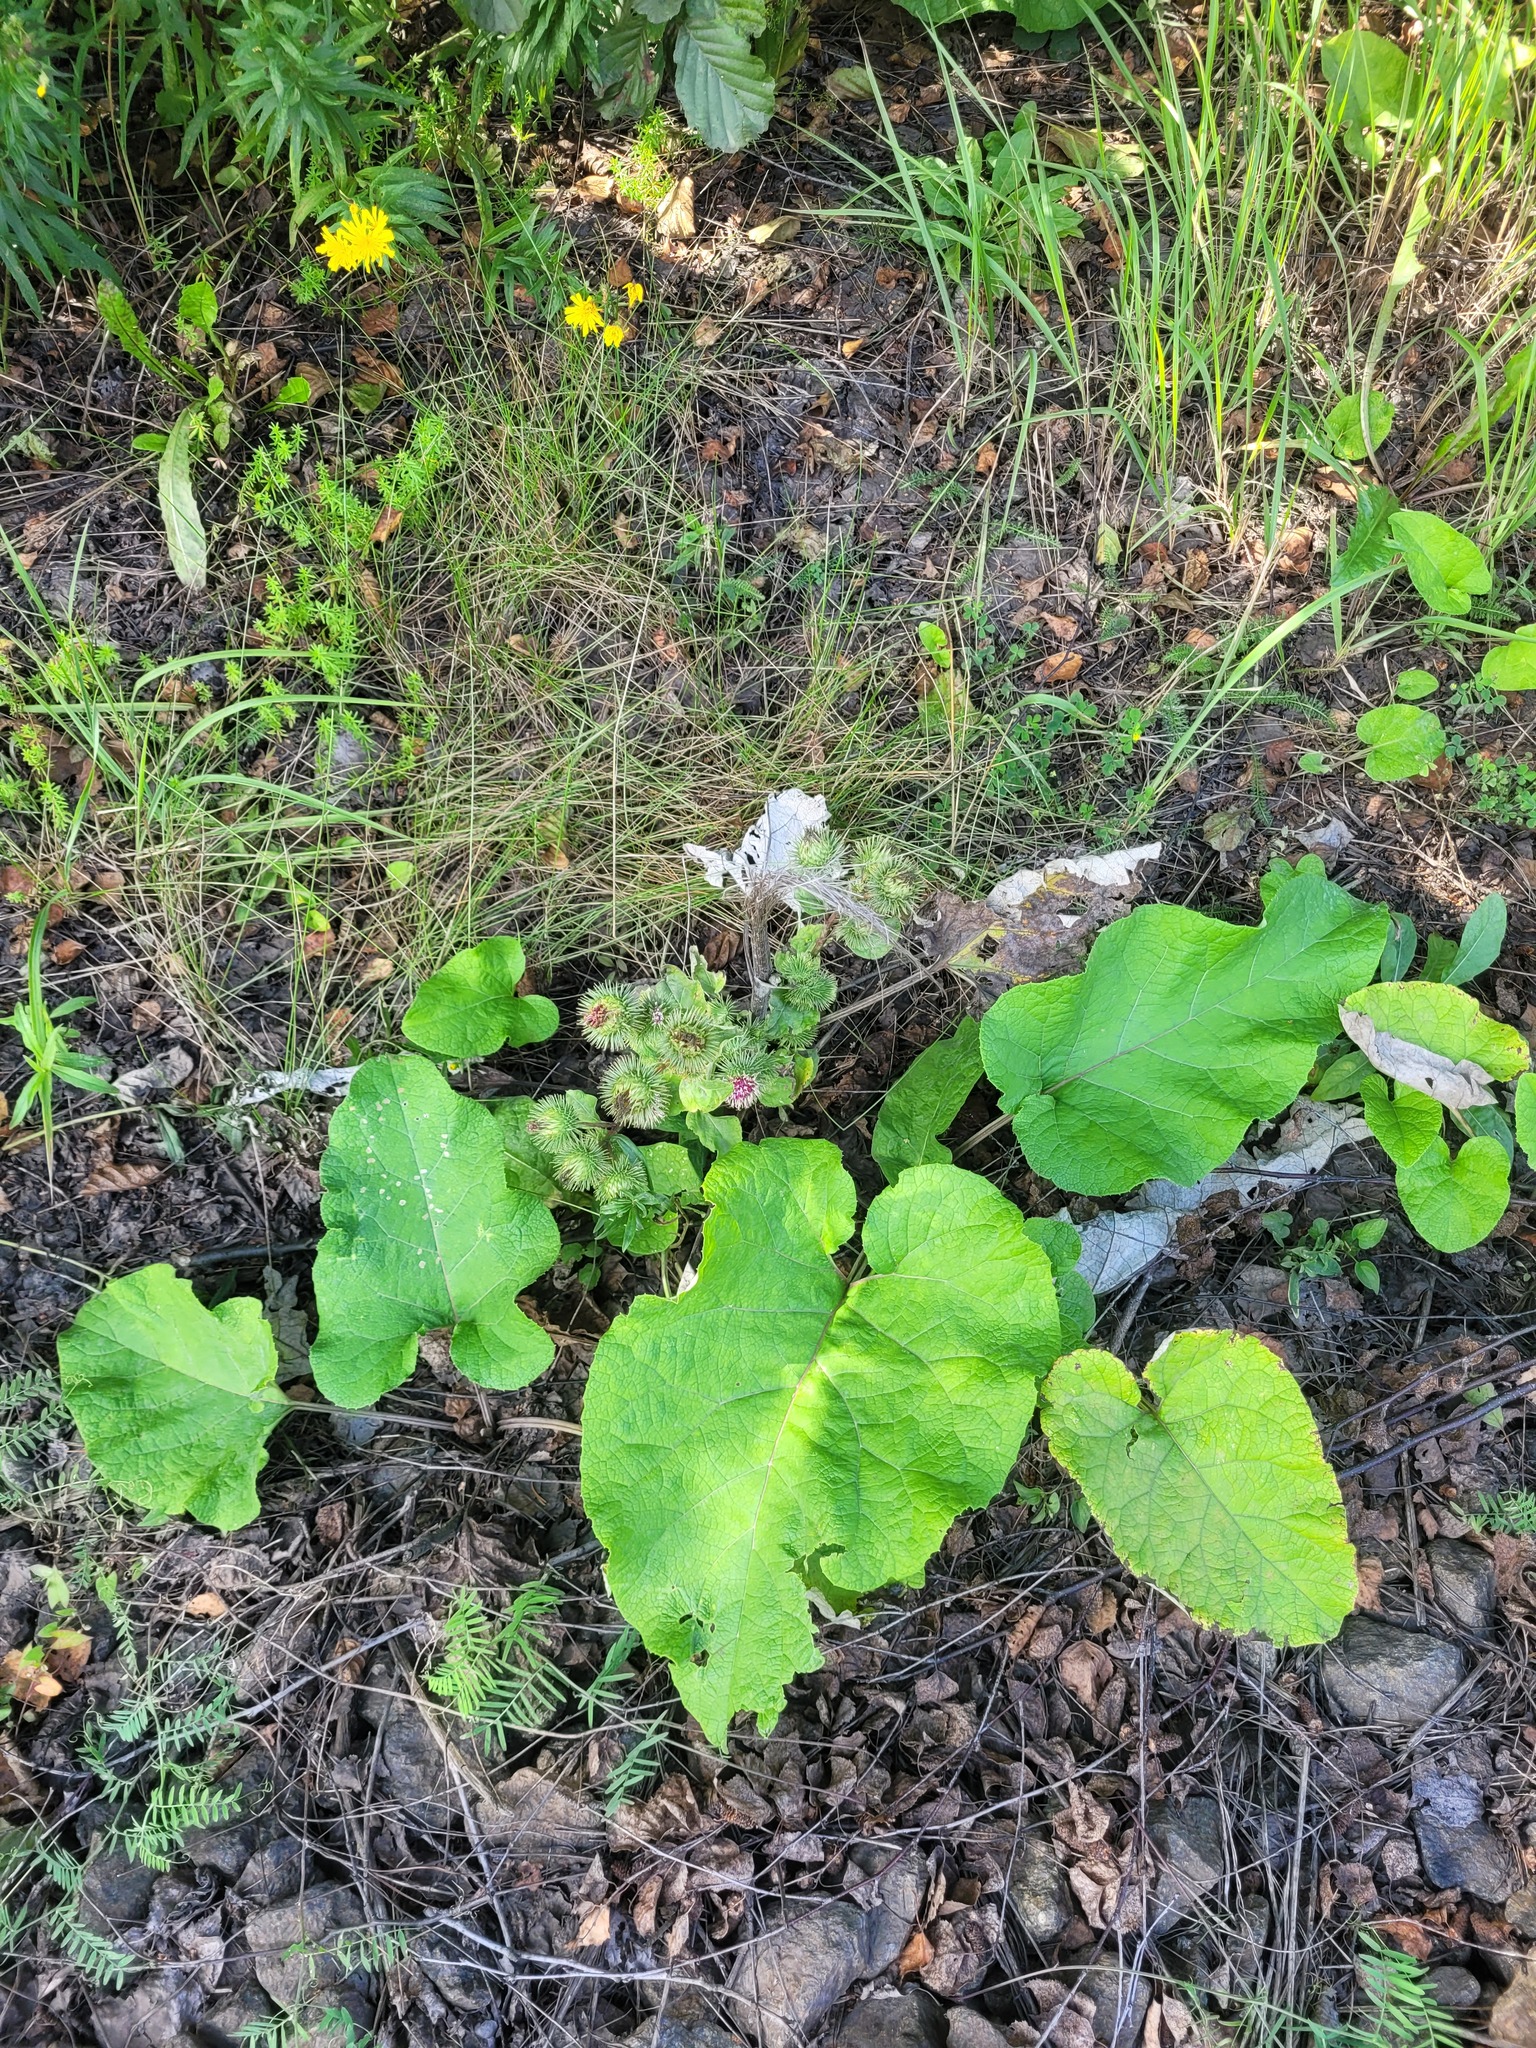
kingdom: Plantae
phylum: Tracheophyta
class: Magnoliopsida
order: Asterales
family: Asteraceae
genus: Arctium
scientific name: Arctium lappa
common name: Greater burdock
